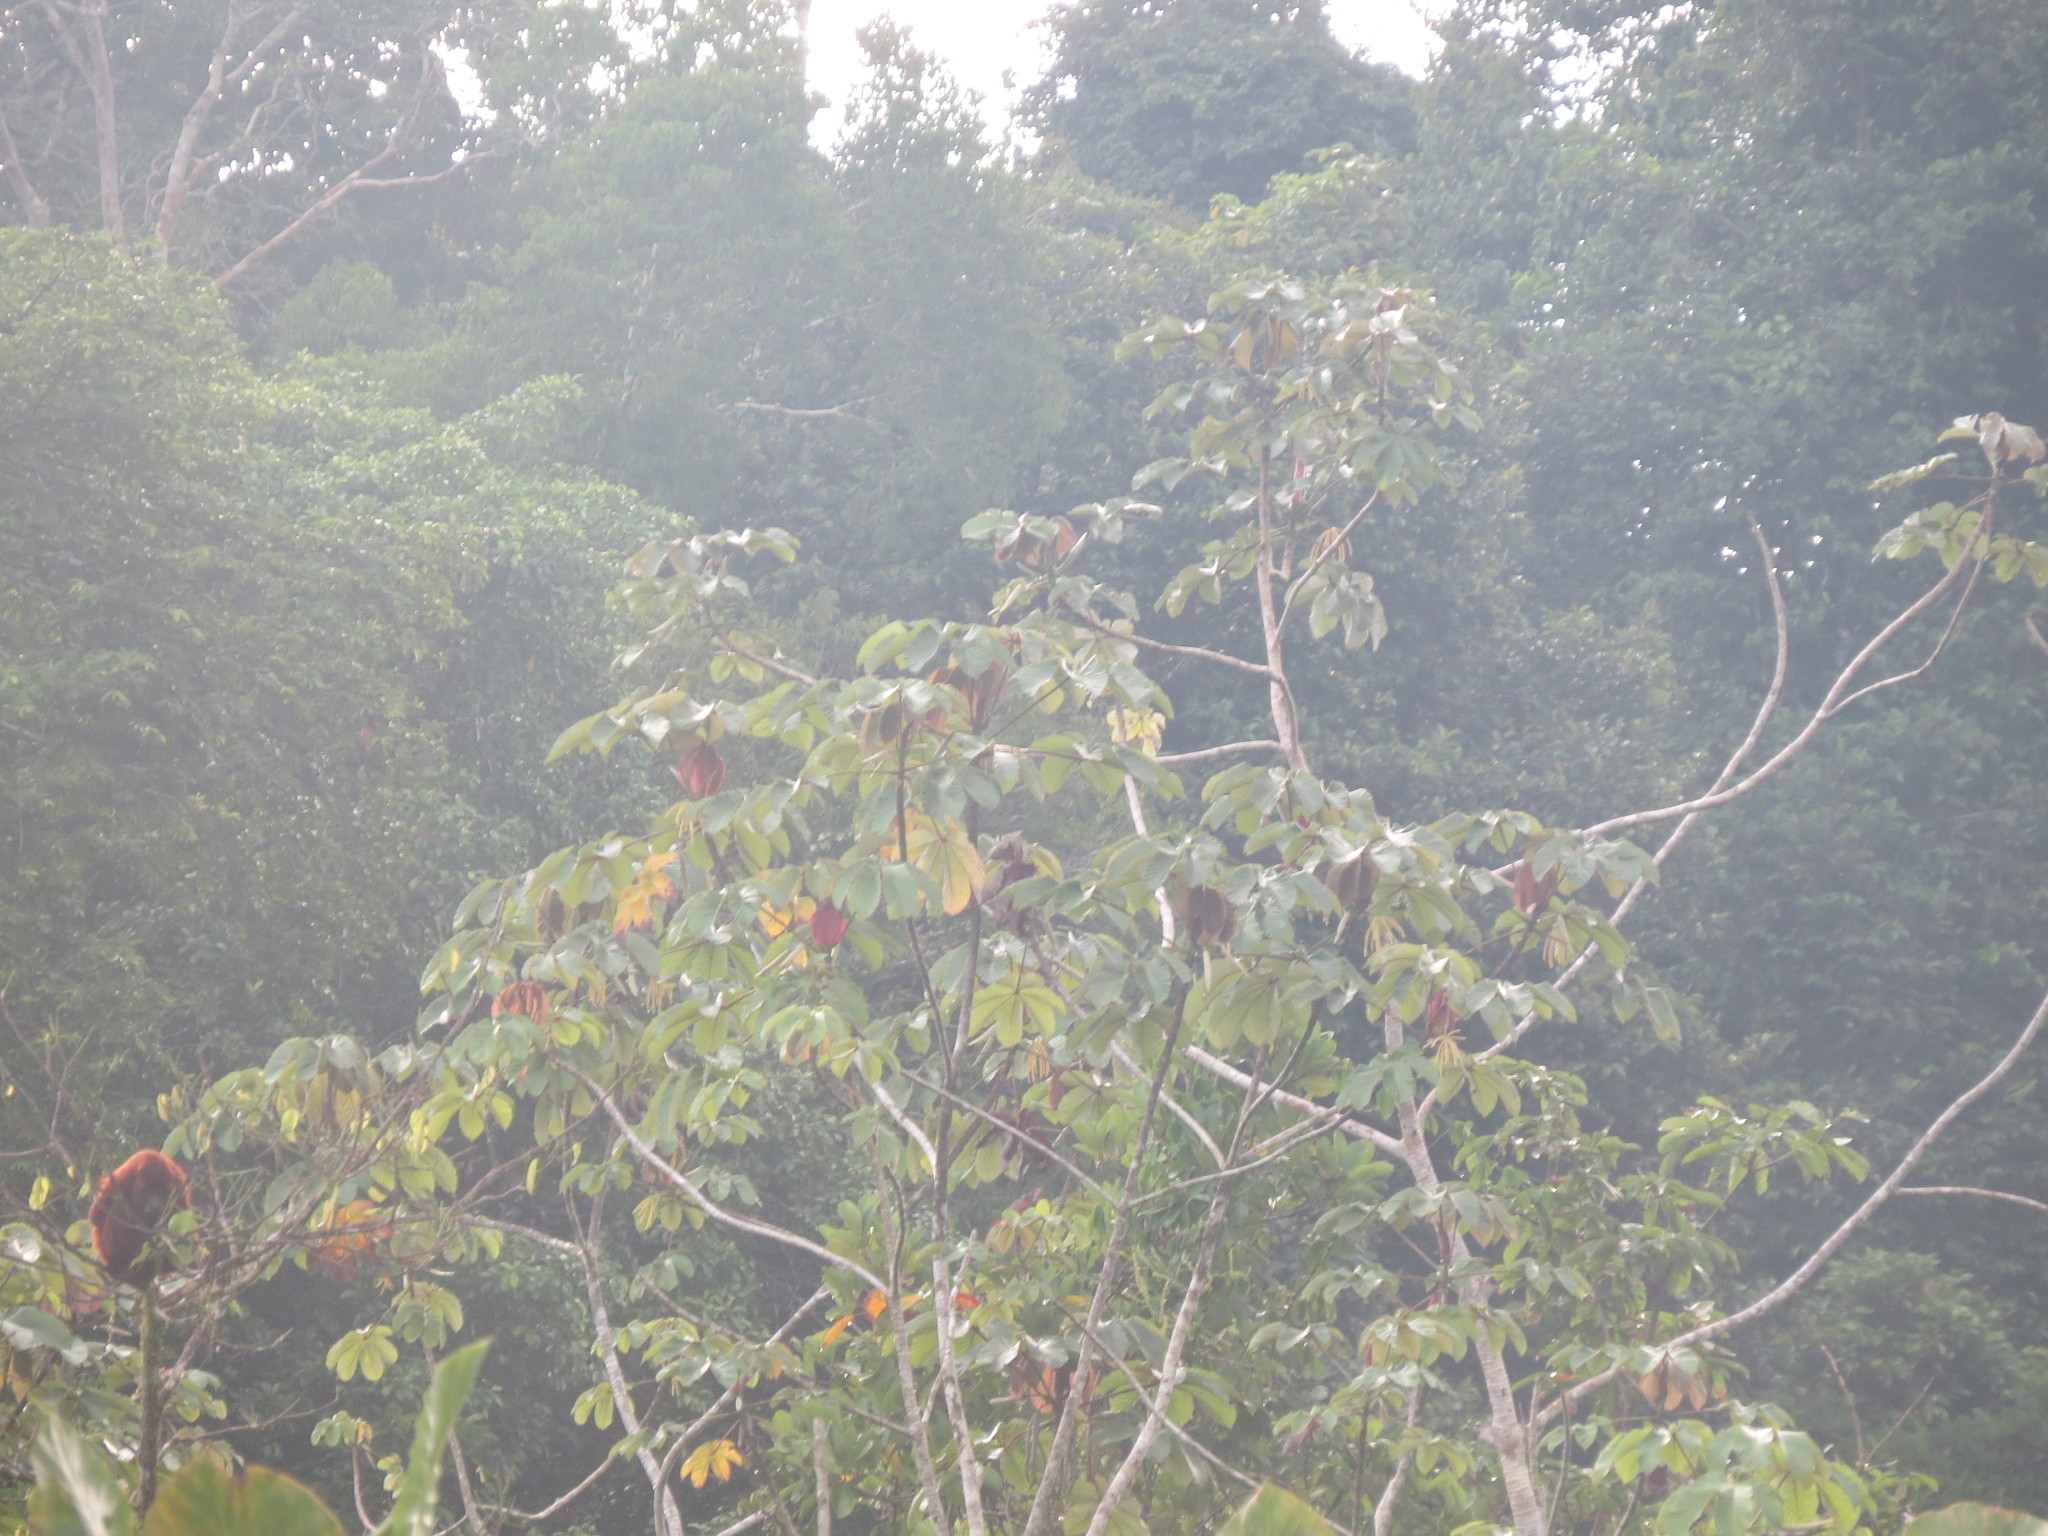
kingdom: Animalia
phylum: Chordata
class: Mammalia
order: Primates
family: Atelidae
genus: Alouatta
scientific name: Alouatta seniculus
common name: Venezuelan red howler
